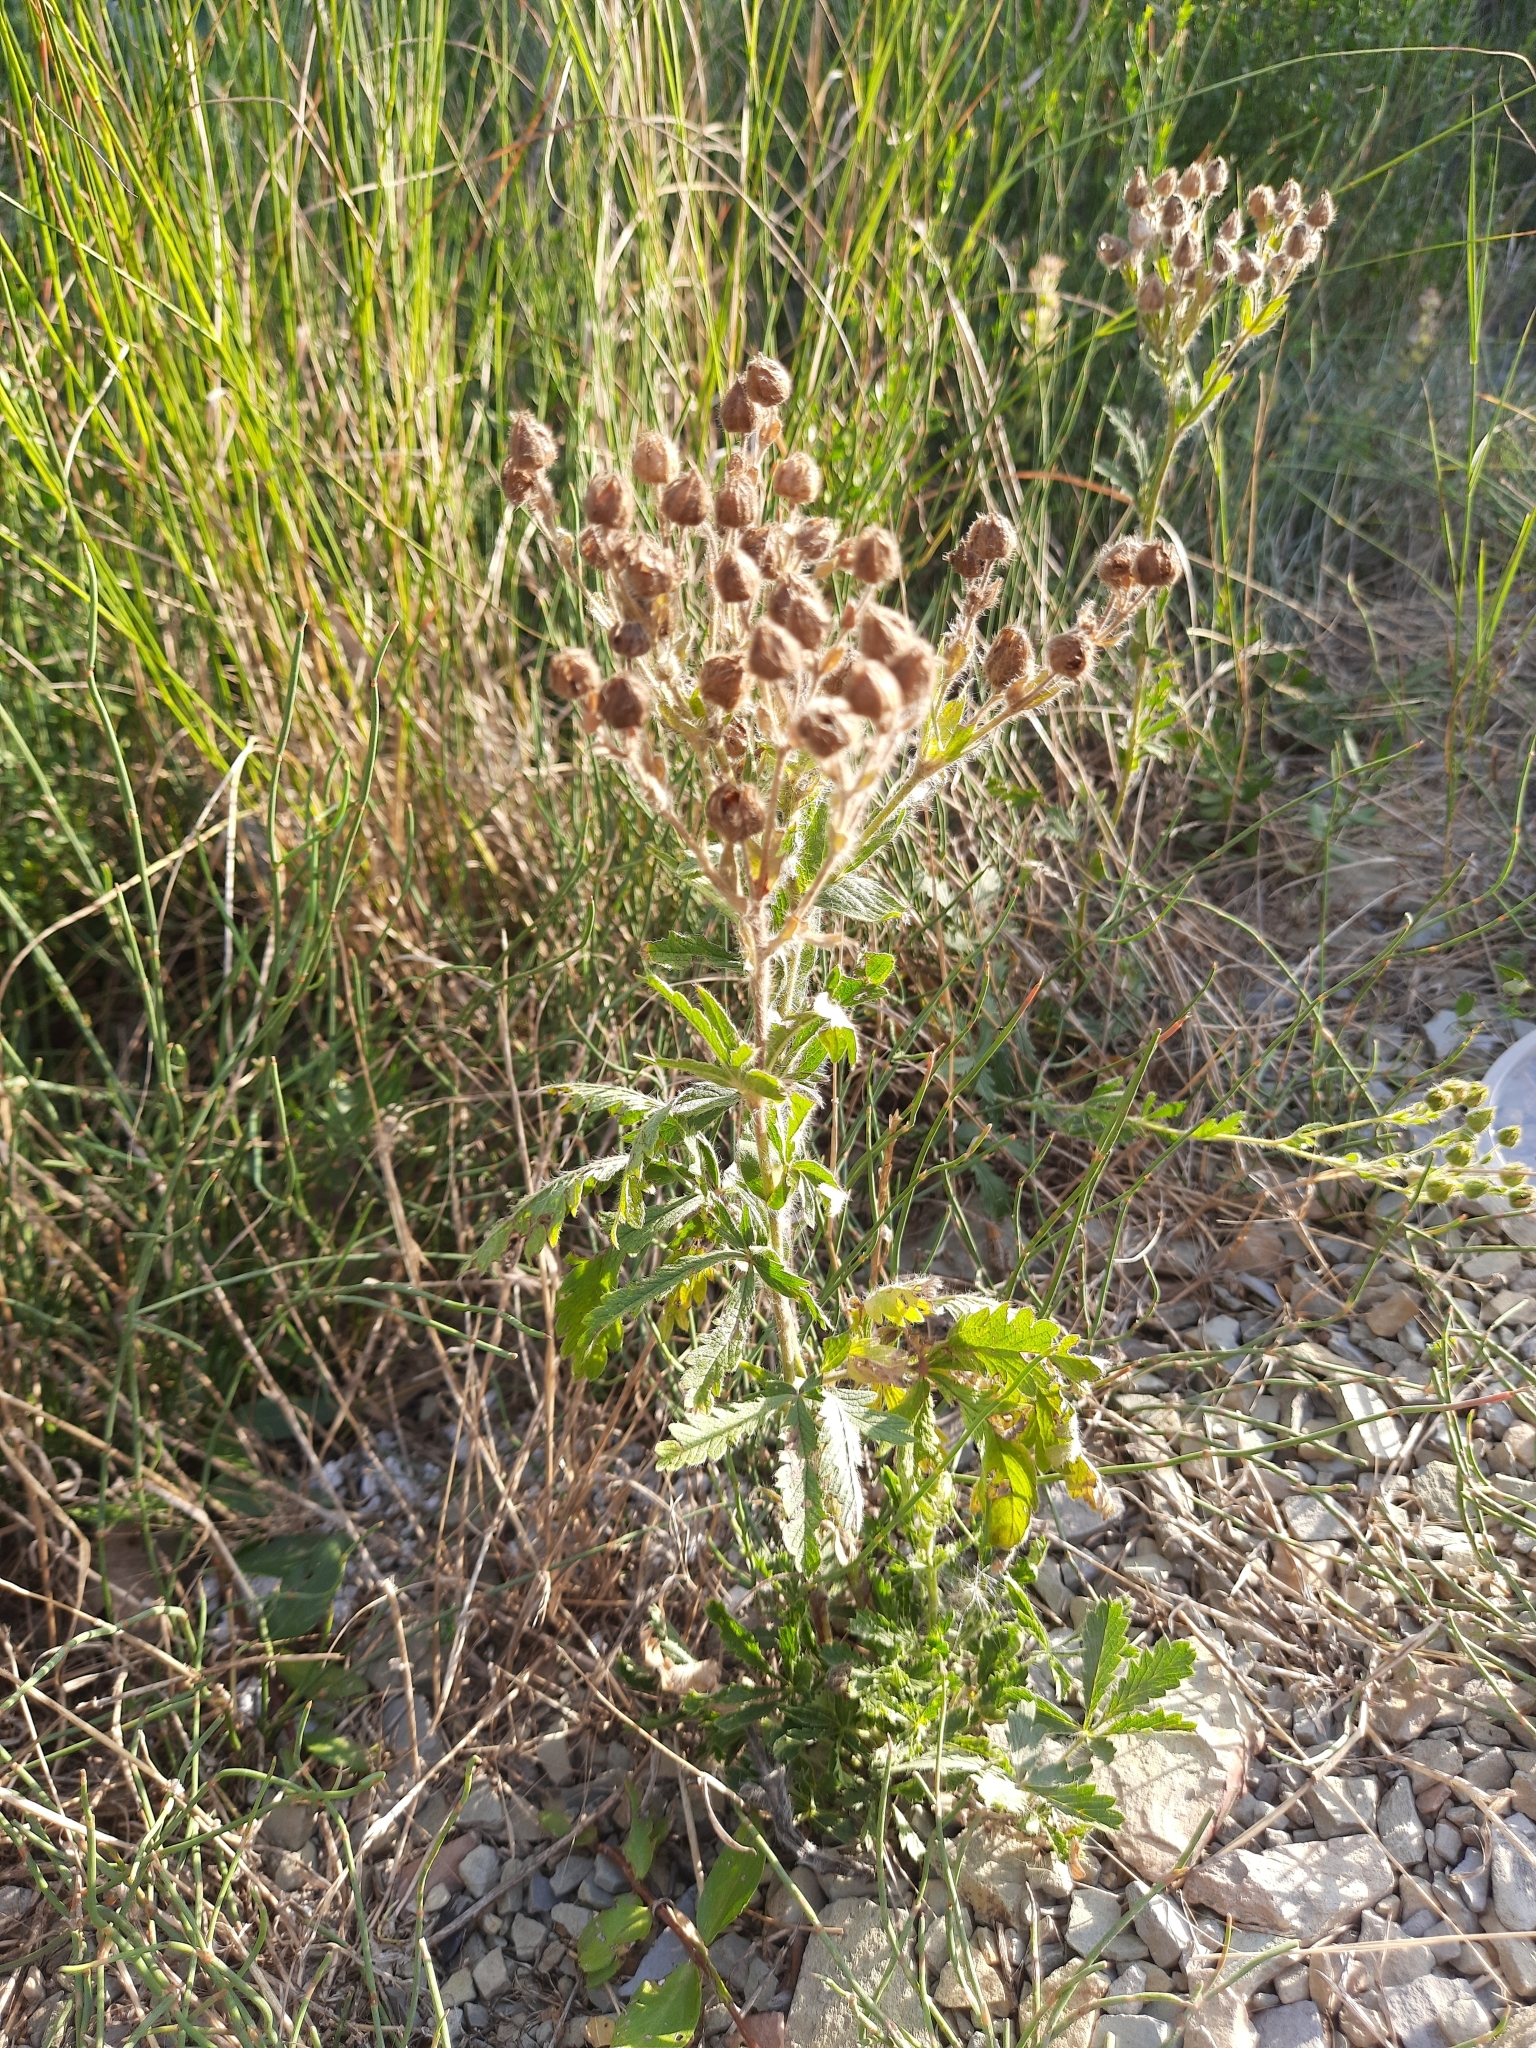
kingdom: Plantae
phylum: Tracheophyta
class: Magnoliopsida
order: Rosales
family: Rosaceae
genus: Potentilla
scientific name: Potentilla recta
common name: Sulphur cinquefoil
